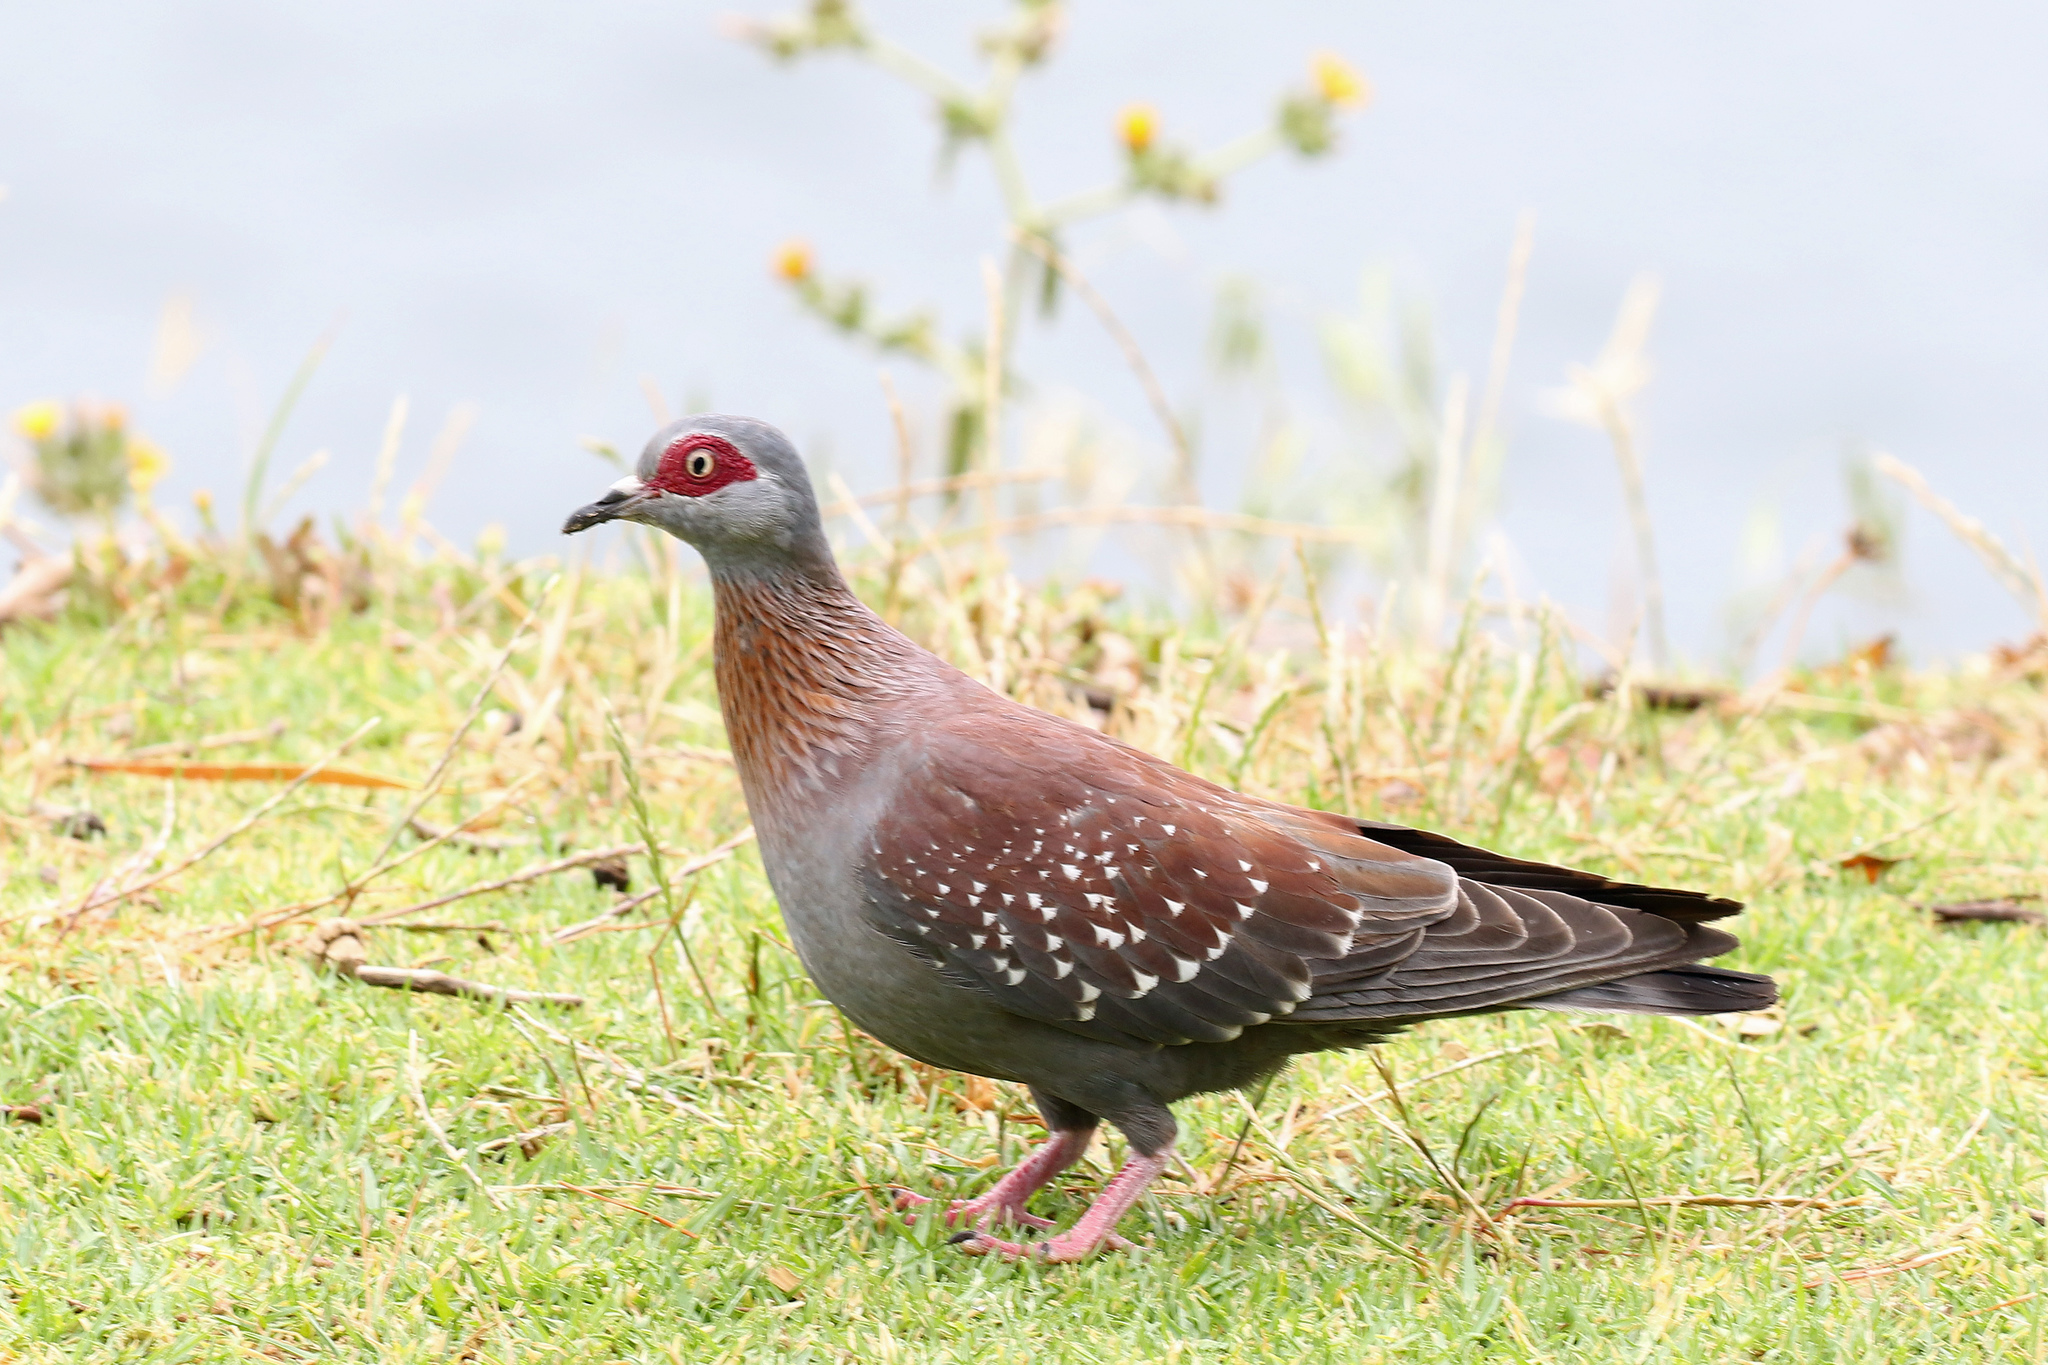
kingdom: Animalia
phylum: Chordata
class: Aves
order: Columbiformes
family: Columbidae
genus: Columba
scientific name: Columba guinea
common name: Speckled pigeon
